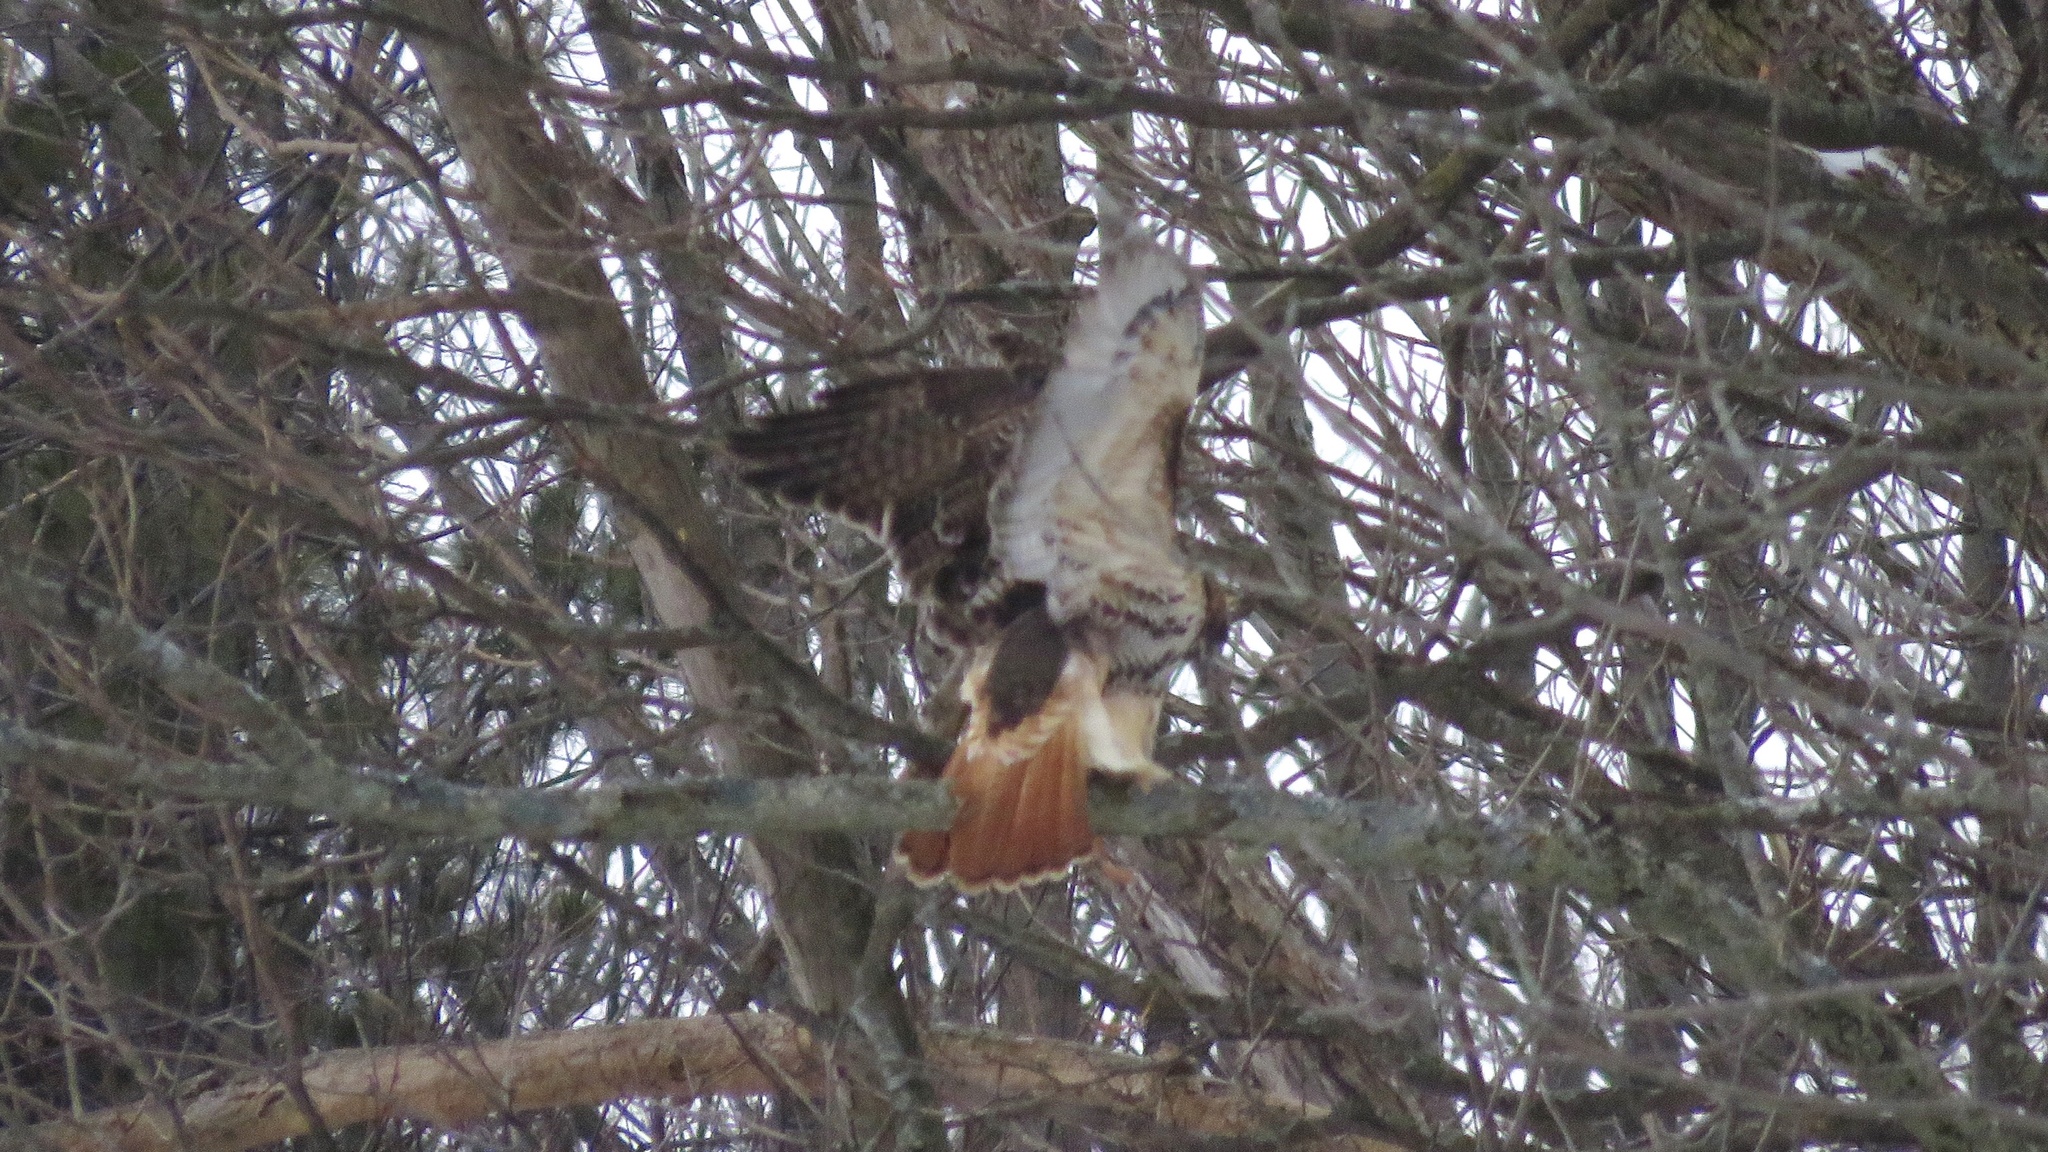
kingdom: Animalia
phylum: Chordata
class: Aves
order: Accipitriformes
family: Accipitridae
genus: Buteo
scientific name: Buteo jamaicensis
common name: Red-tailed hawk
